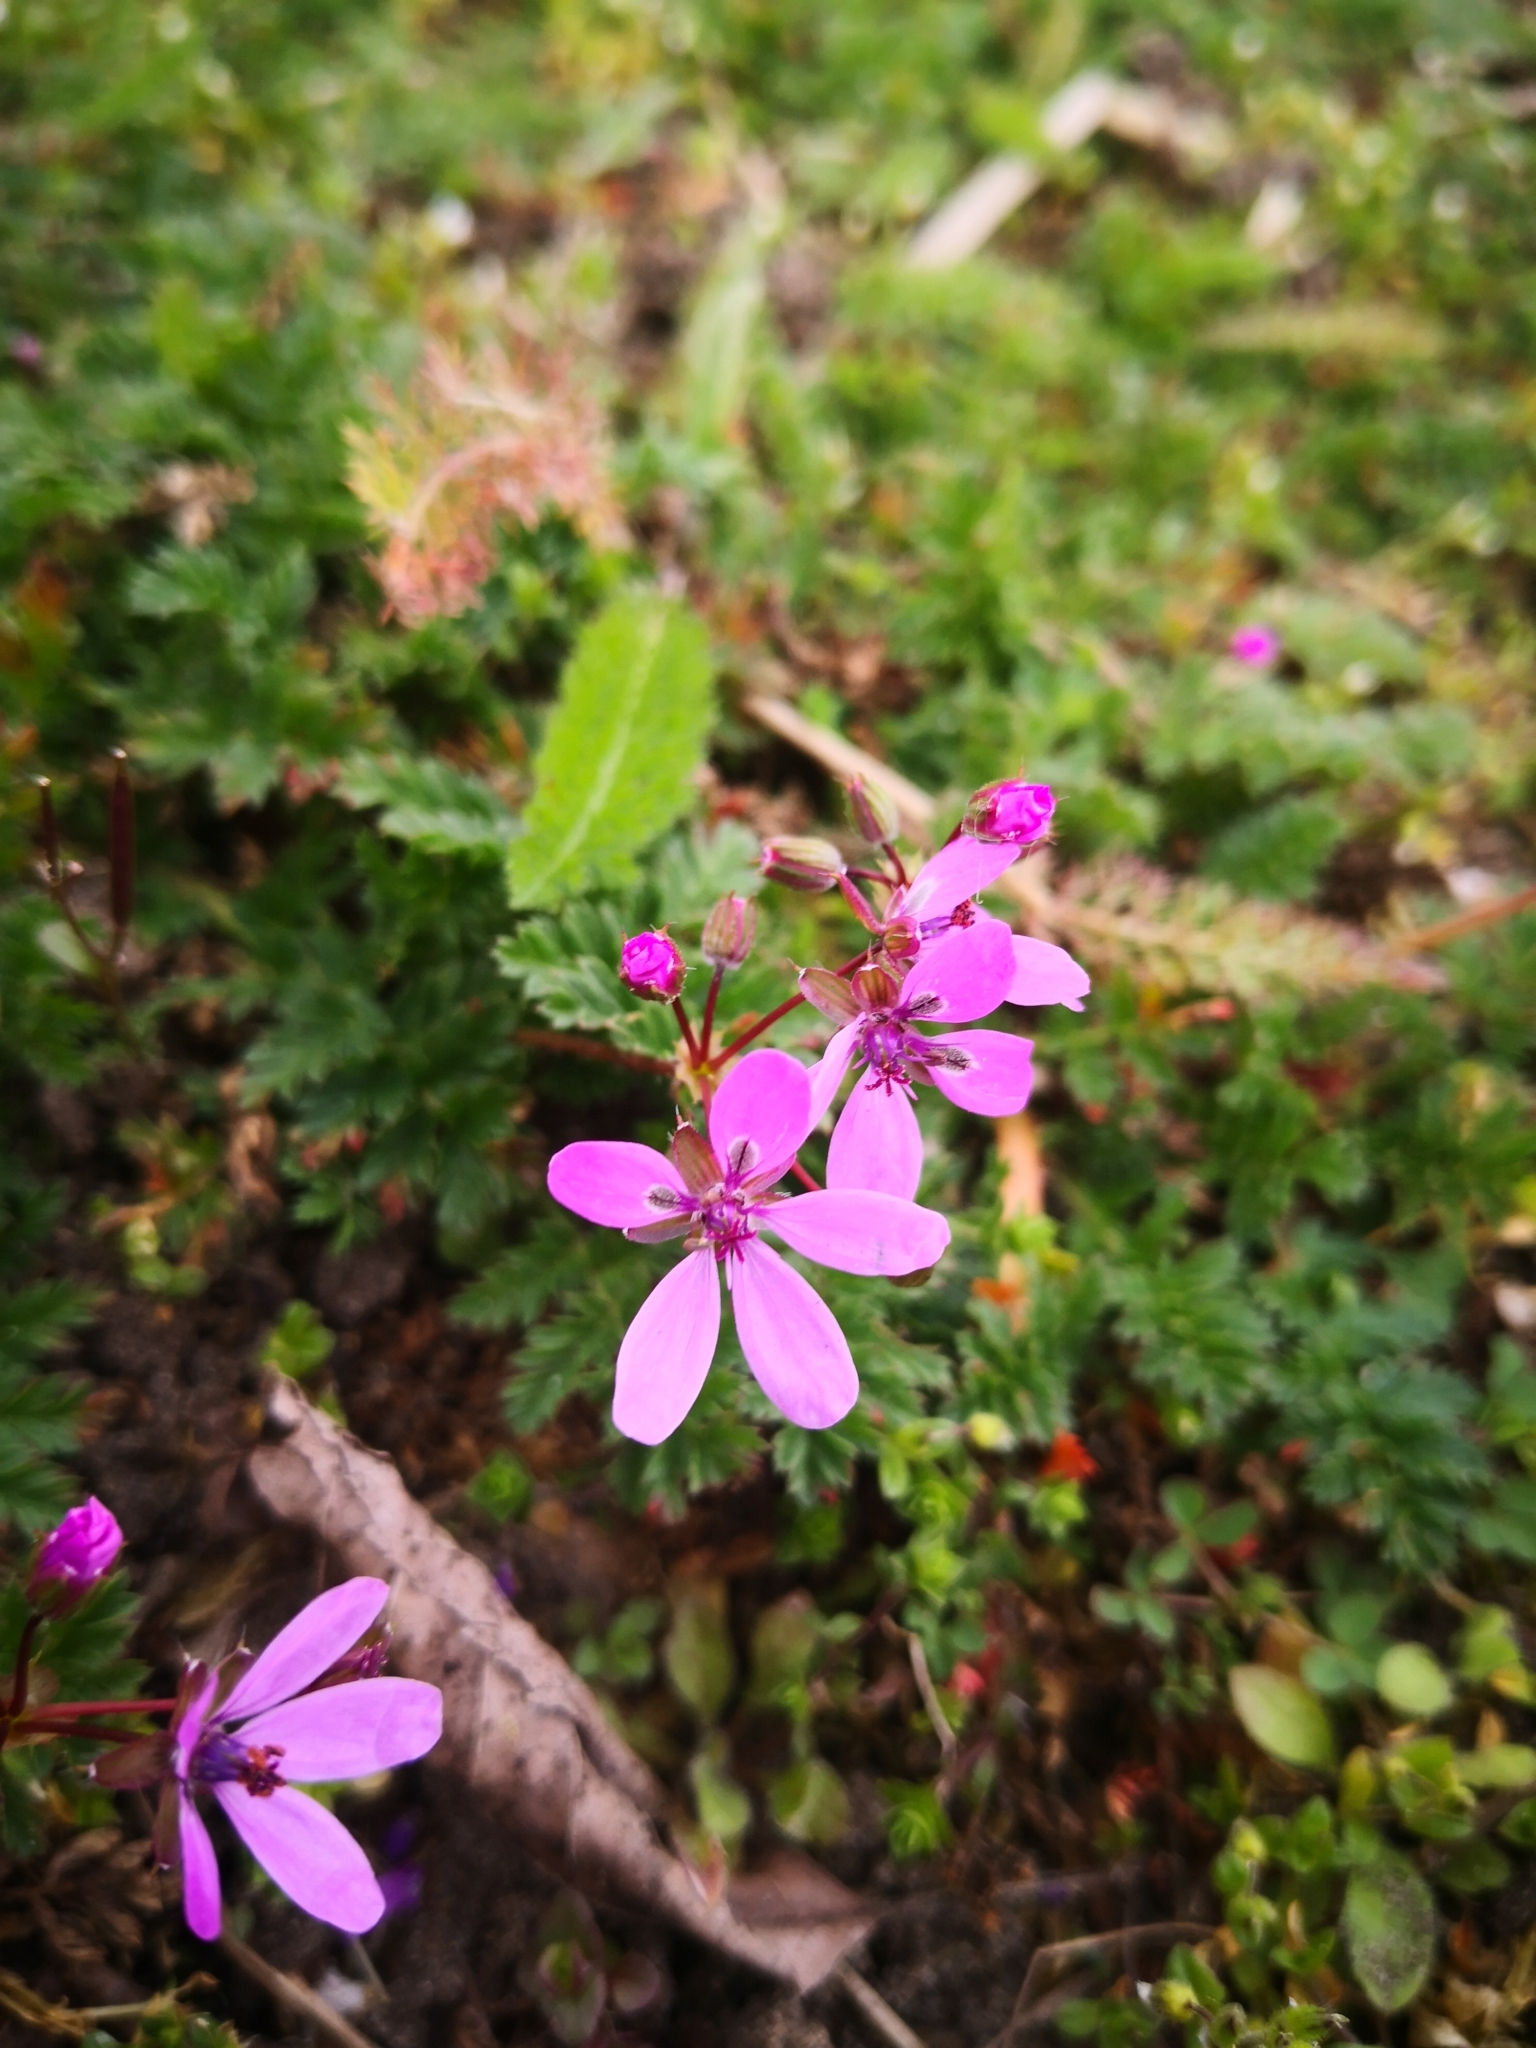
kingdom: Plantae
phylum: Tracheophyta
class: Magnoliopsida
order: Geraniales
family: Geraniaceae
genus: Erodium
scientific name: Erodium cicutarium
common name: Common stork's-bill
